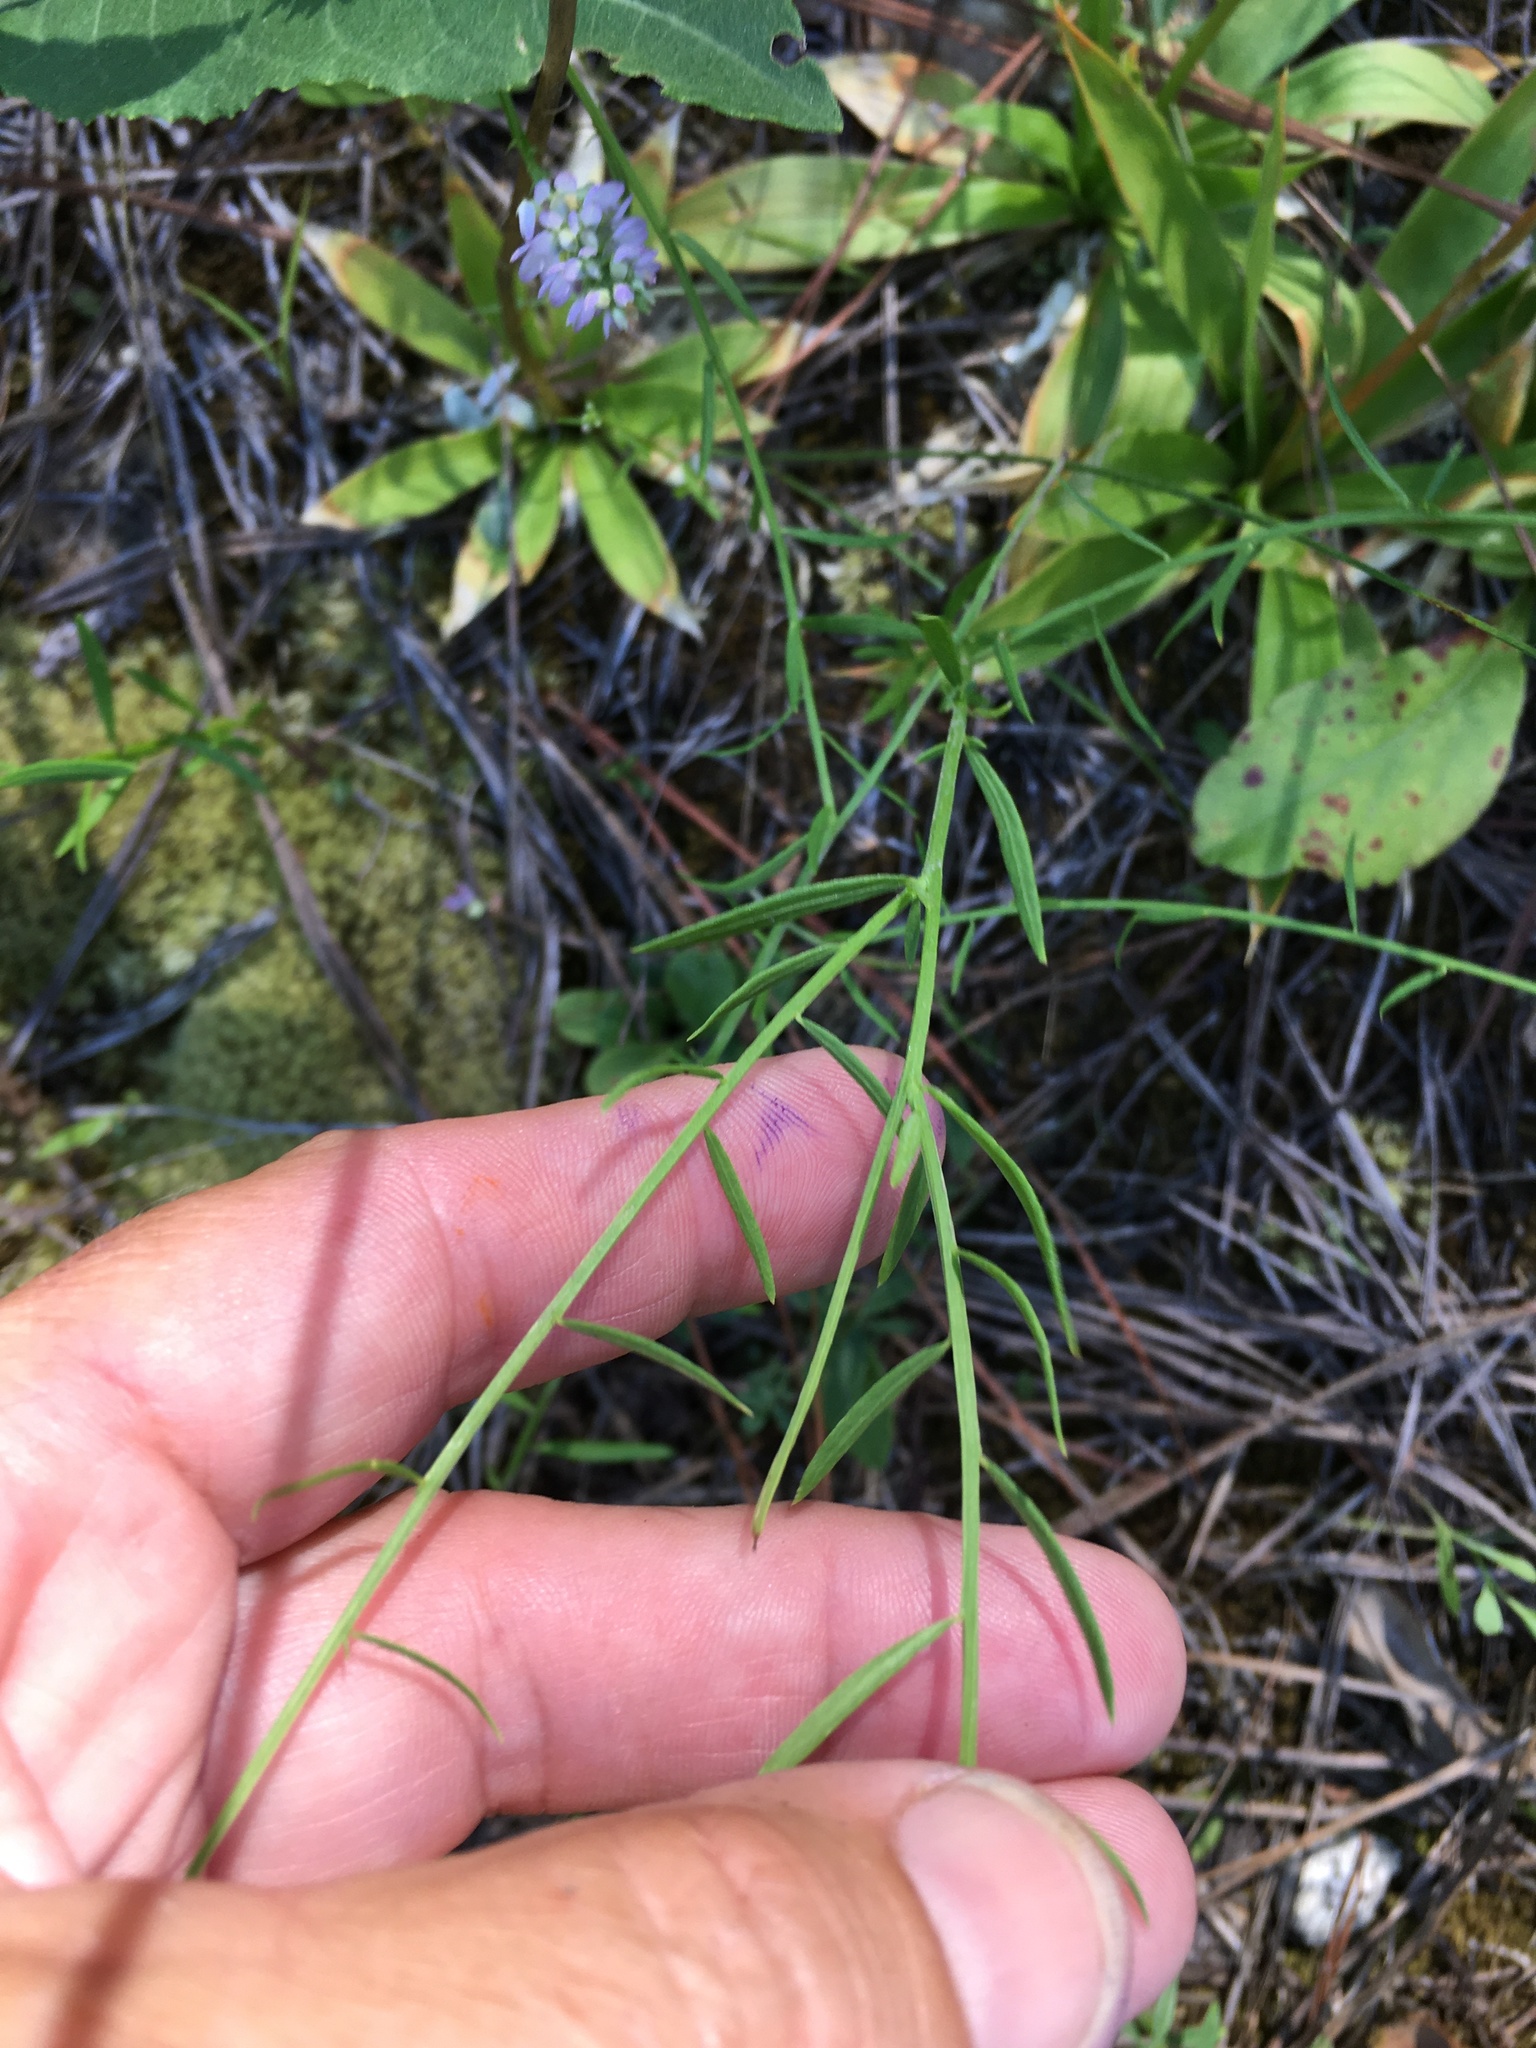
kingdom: Plantae
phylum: Tracheophyta
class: Magnoliopsida
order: Fabales
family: Polygalaceae
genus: Polygala
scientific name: Polygala curtissii
